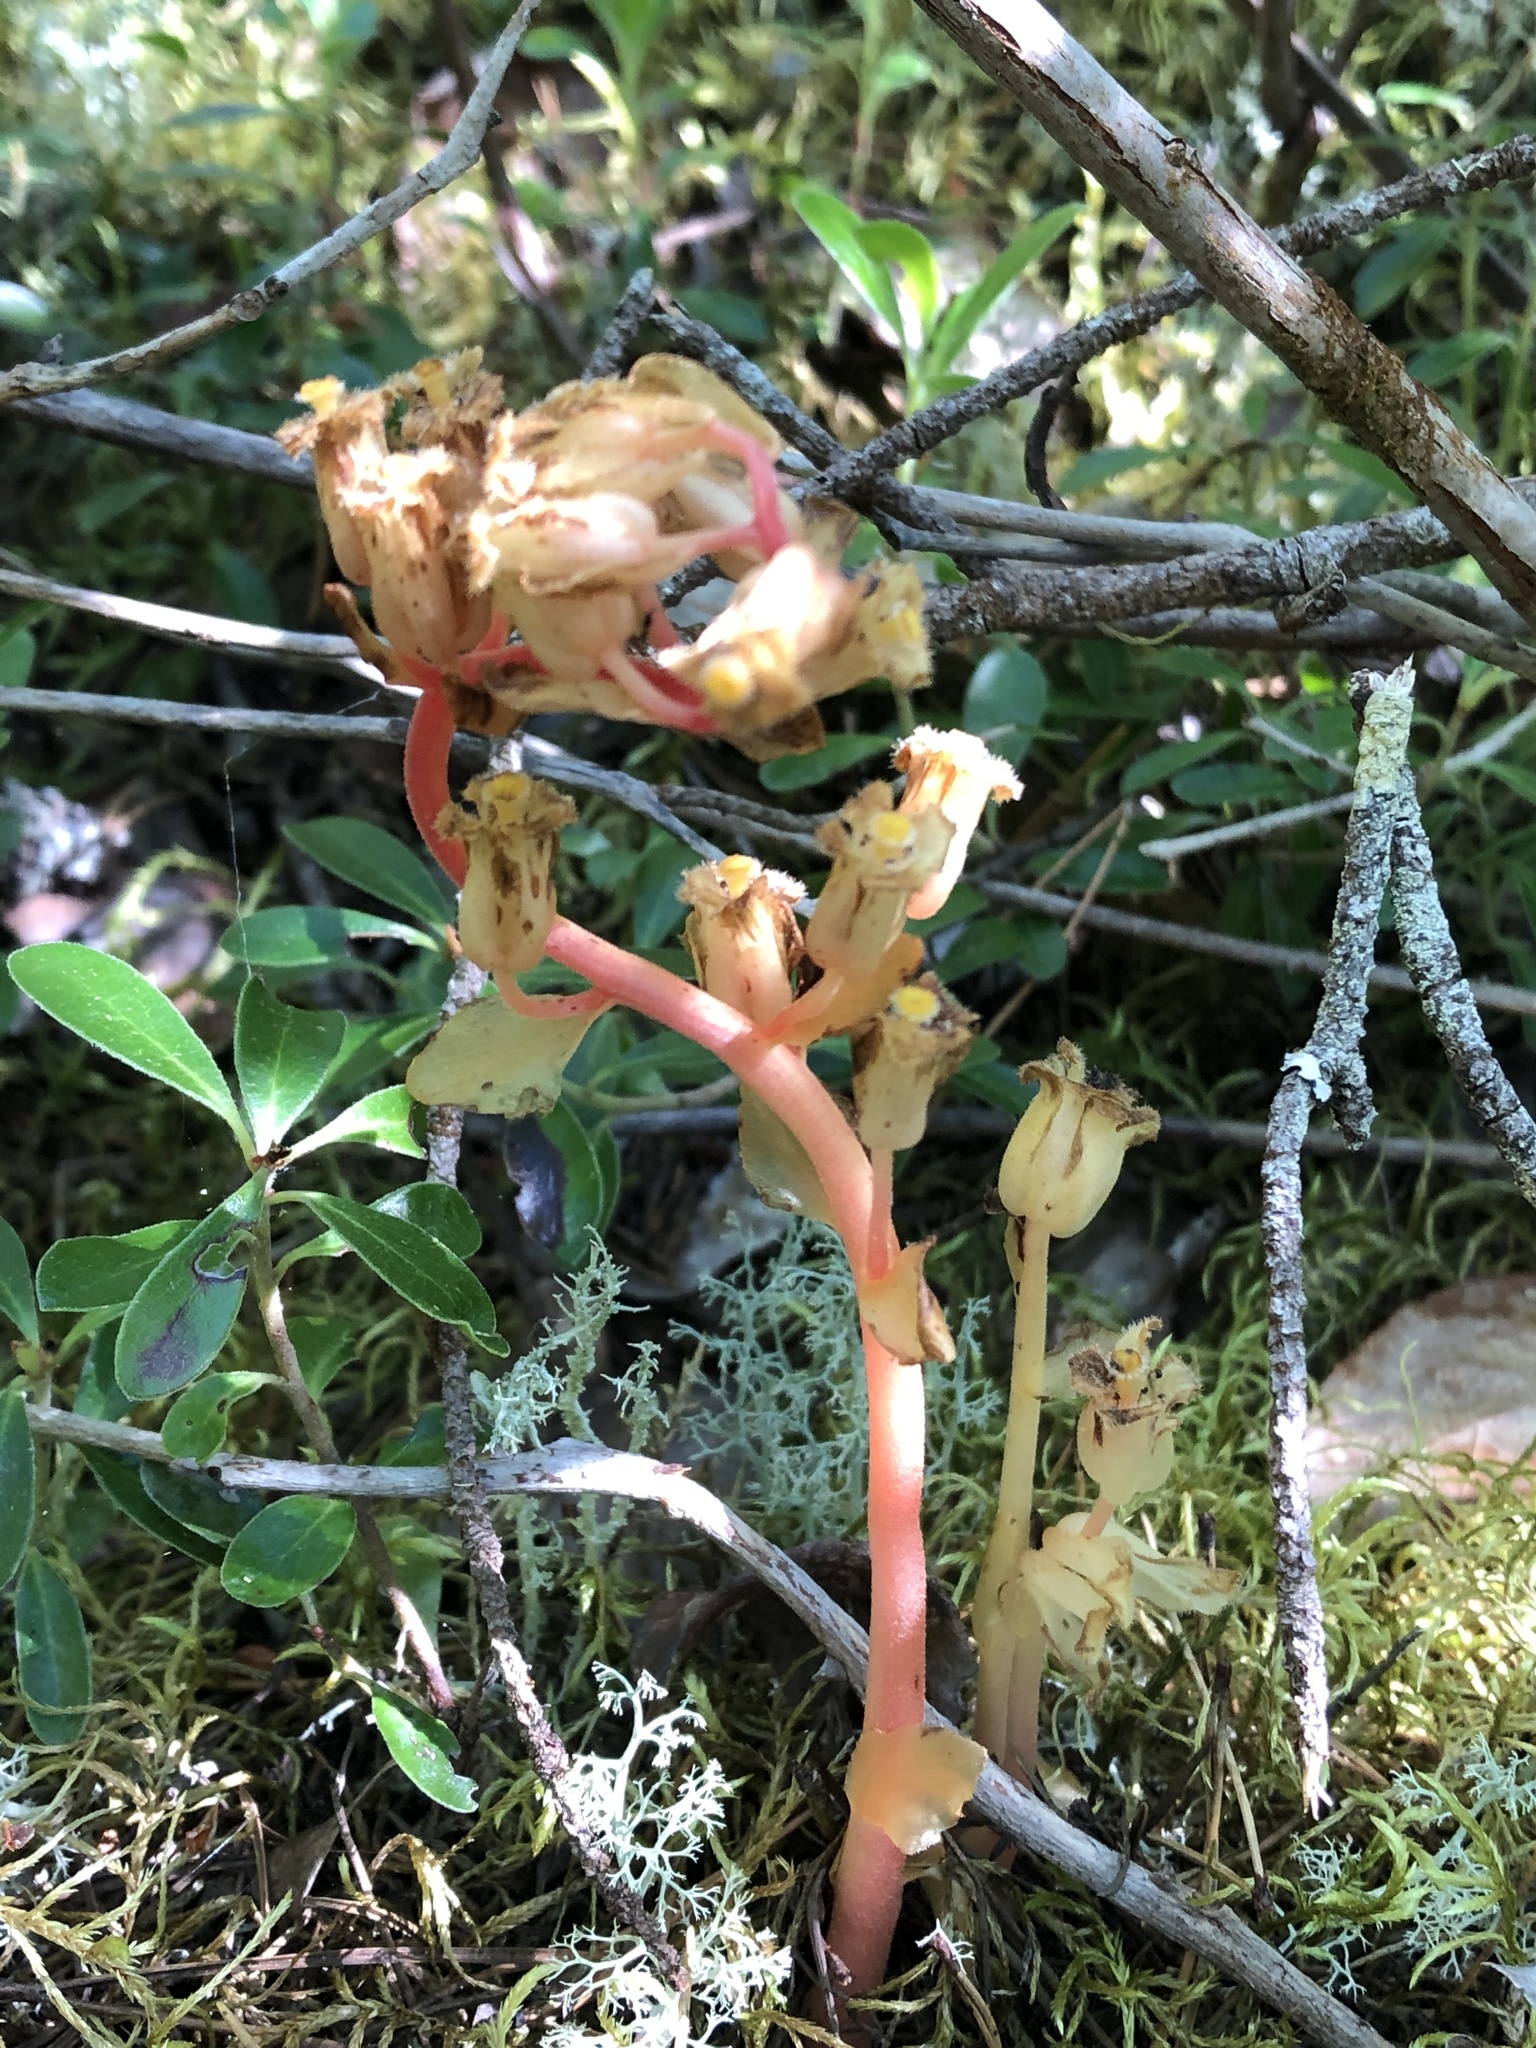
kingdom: Plantae
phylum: Tracheophyta
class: Magnoliopsida
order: Ericales
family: Ericaceae
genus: Hypopitys
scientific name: Hypopitys monotropa
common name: Yellow bird's-nest
